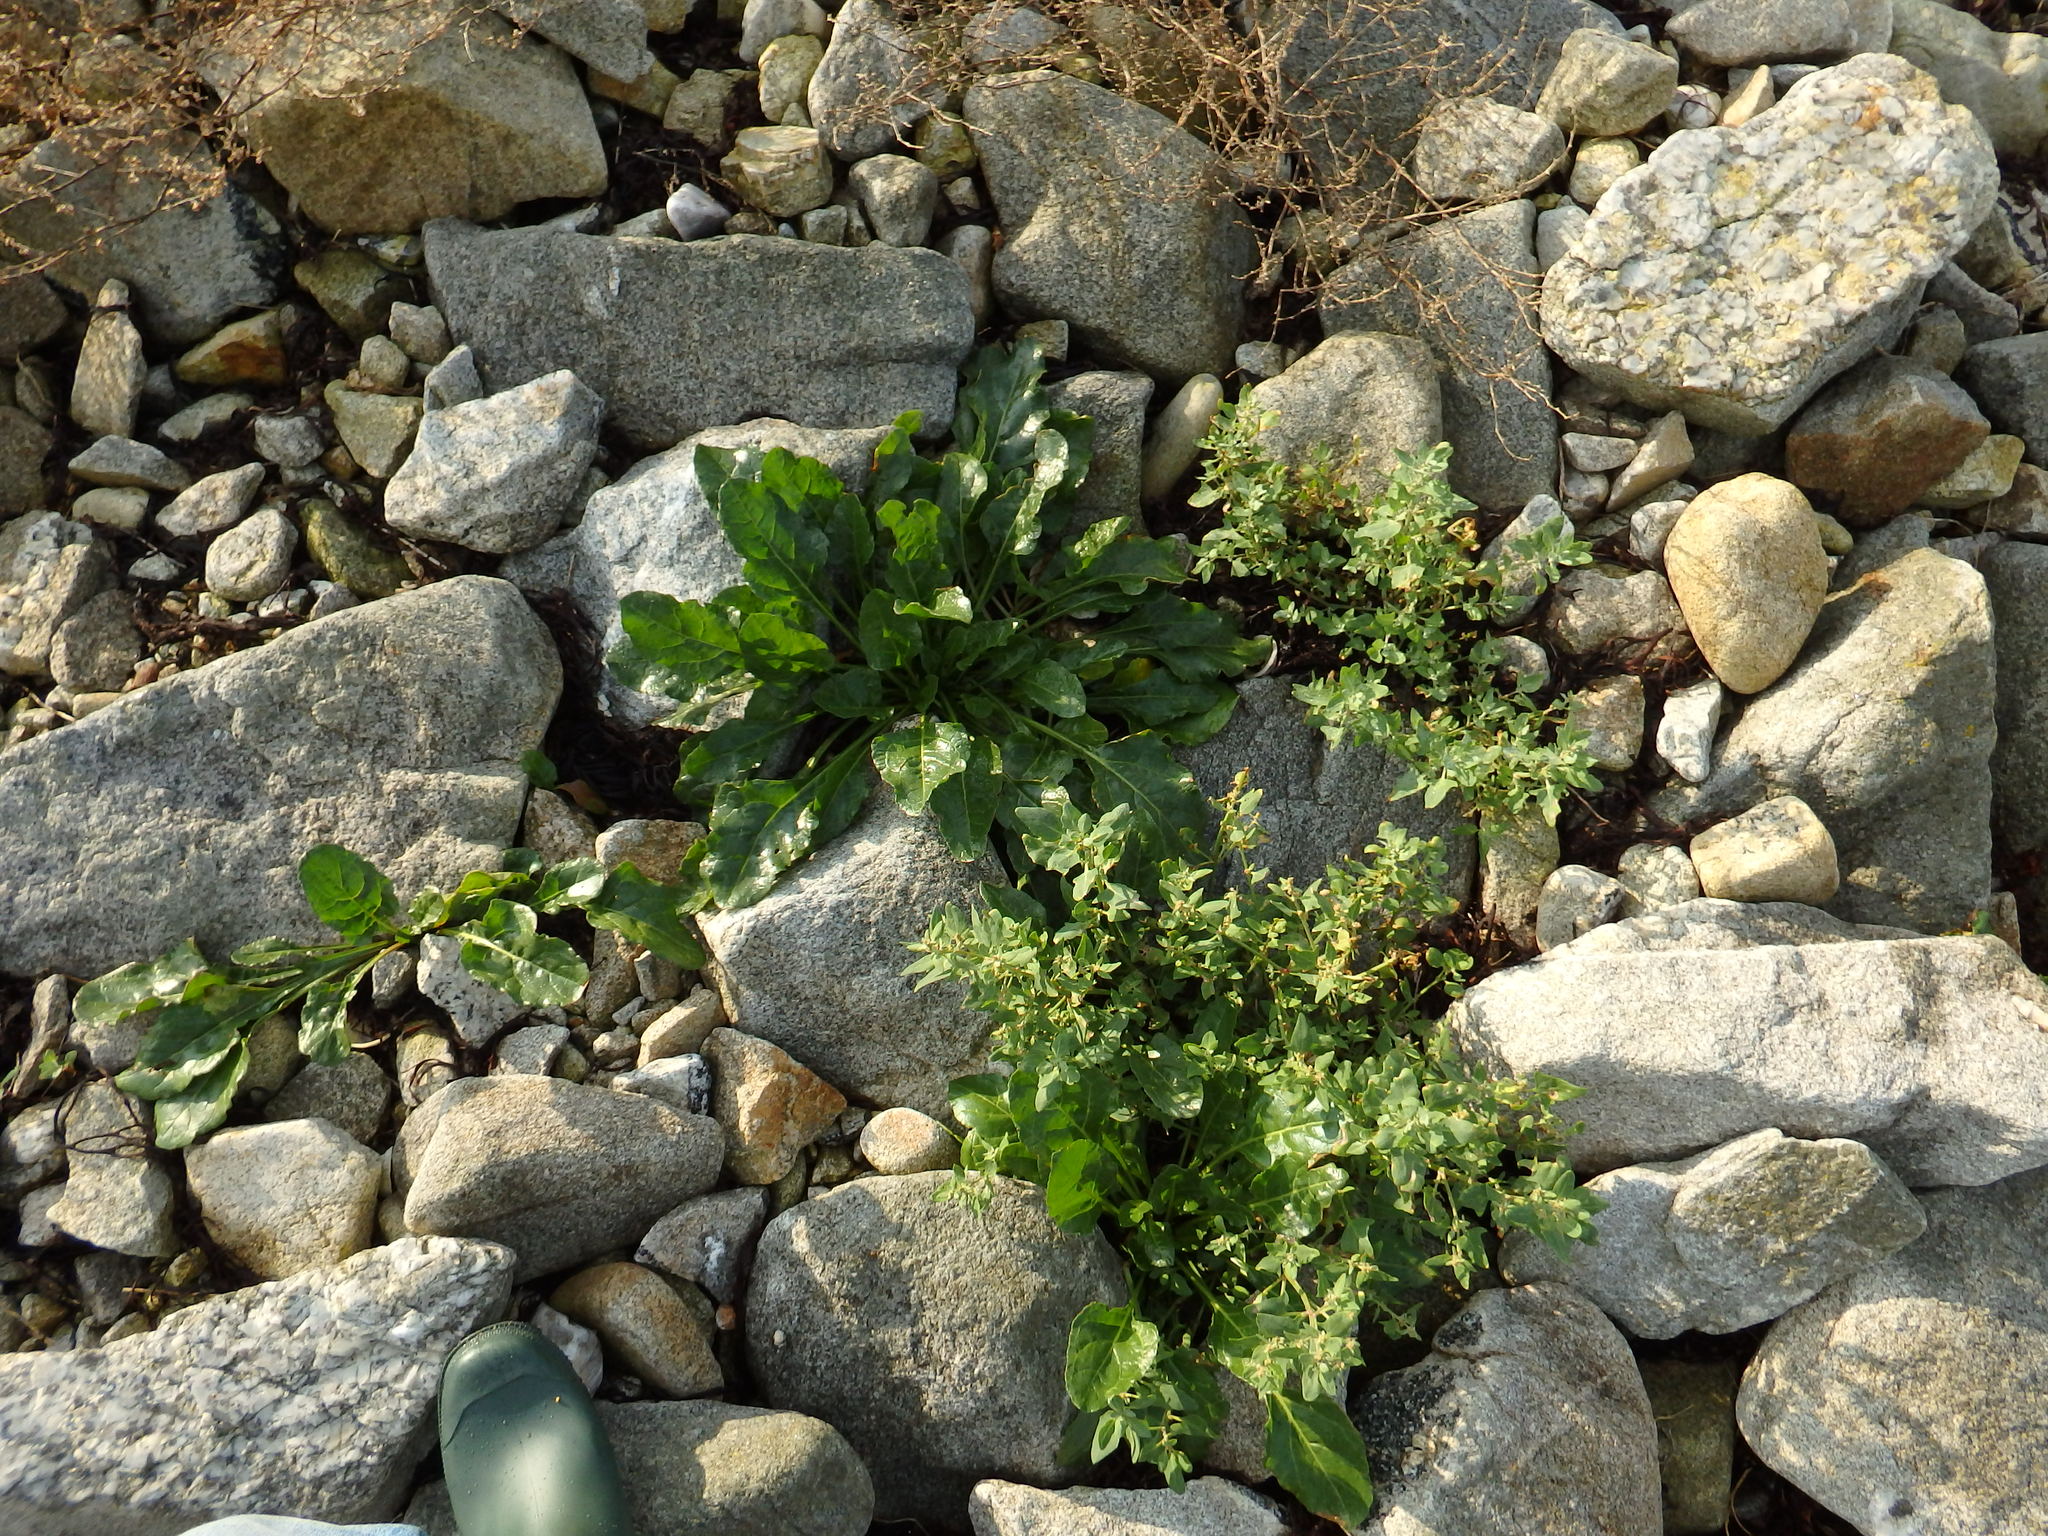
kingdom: Plantae
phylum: Tracheophyta
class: Magnoliopsida
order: Caryophyllales
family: Amaranthaceae
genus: Beta
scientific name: Beta vulgaris
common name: Beet
